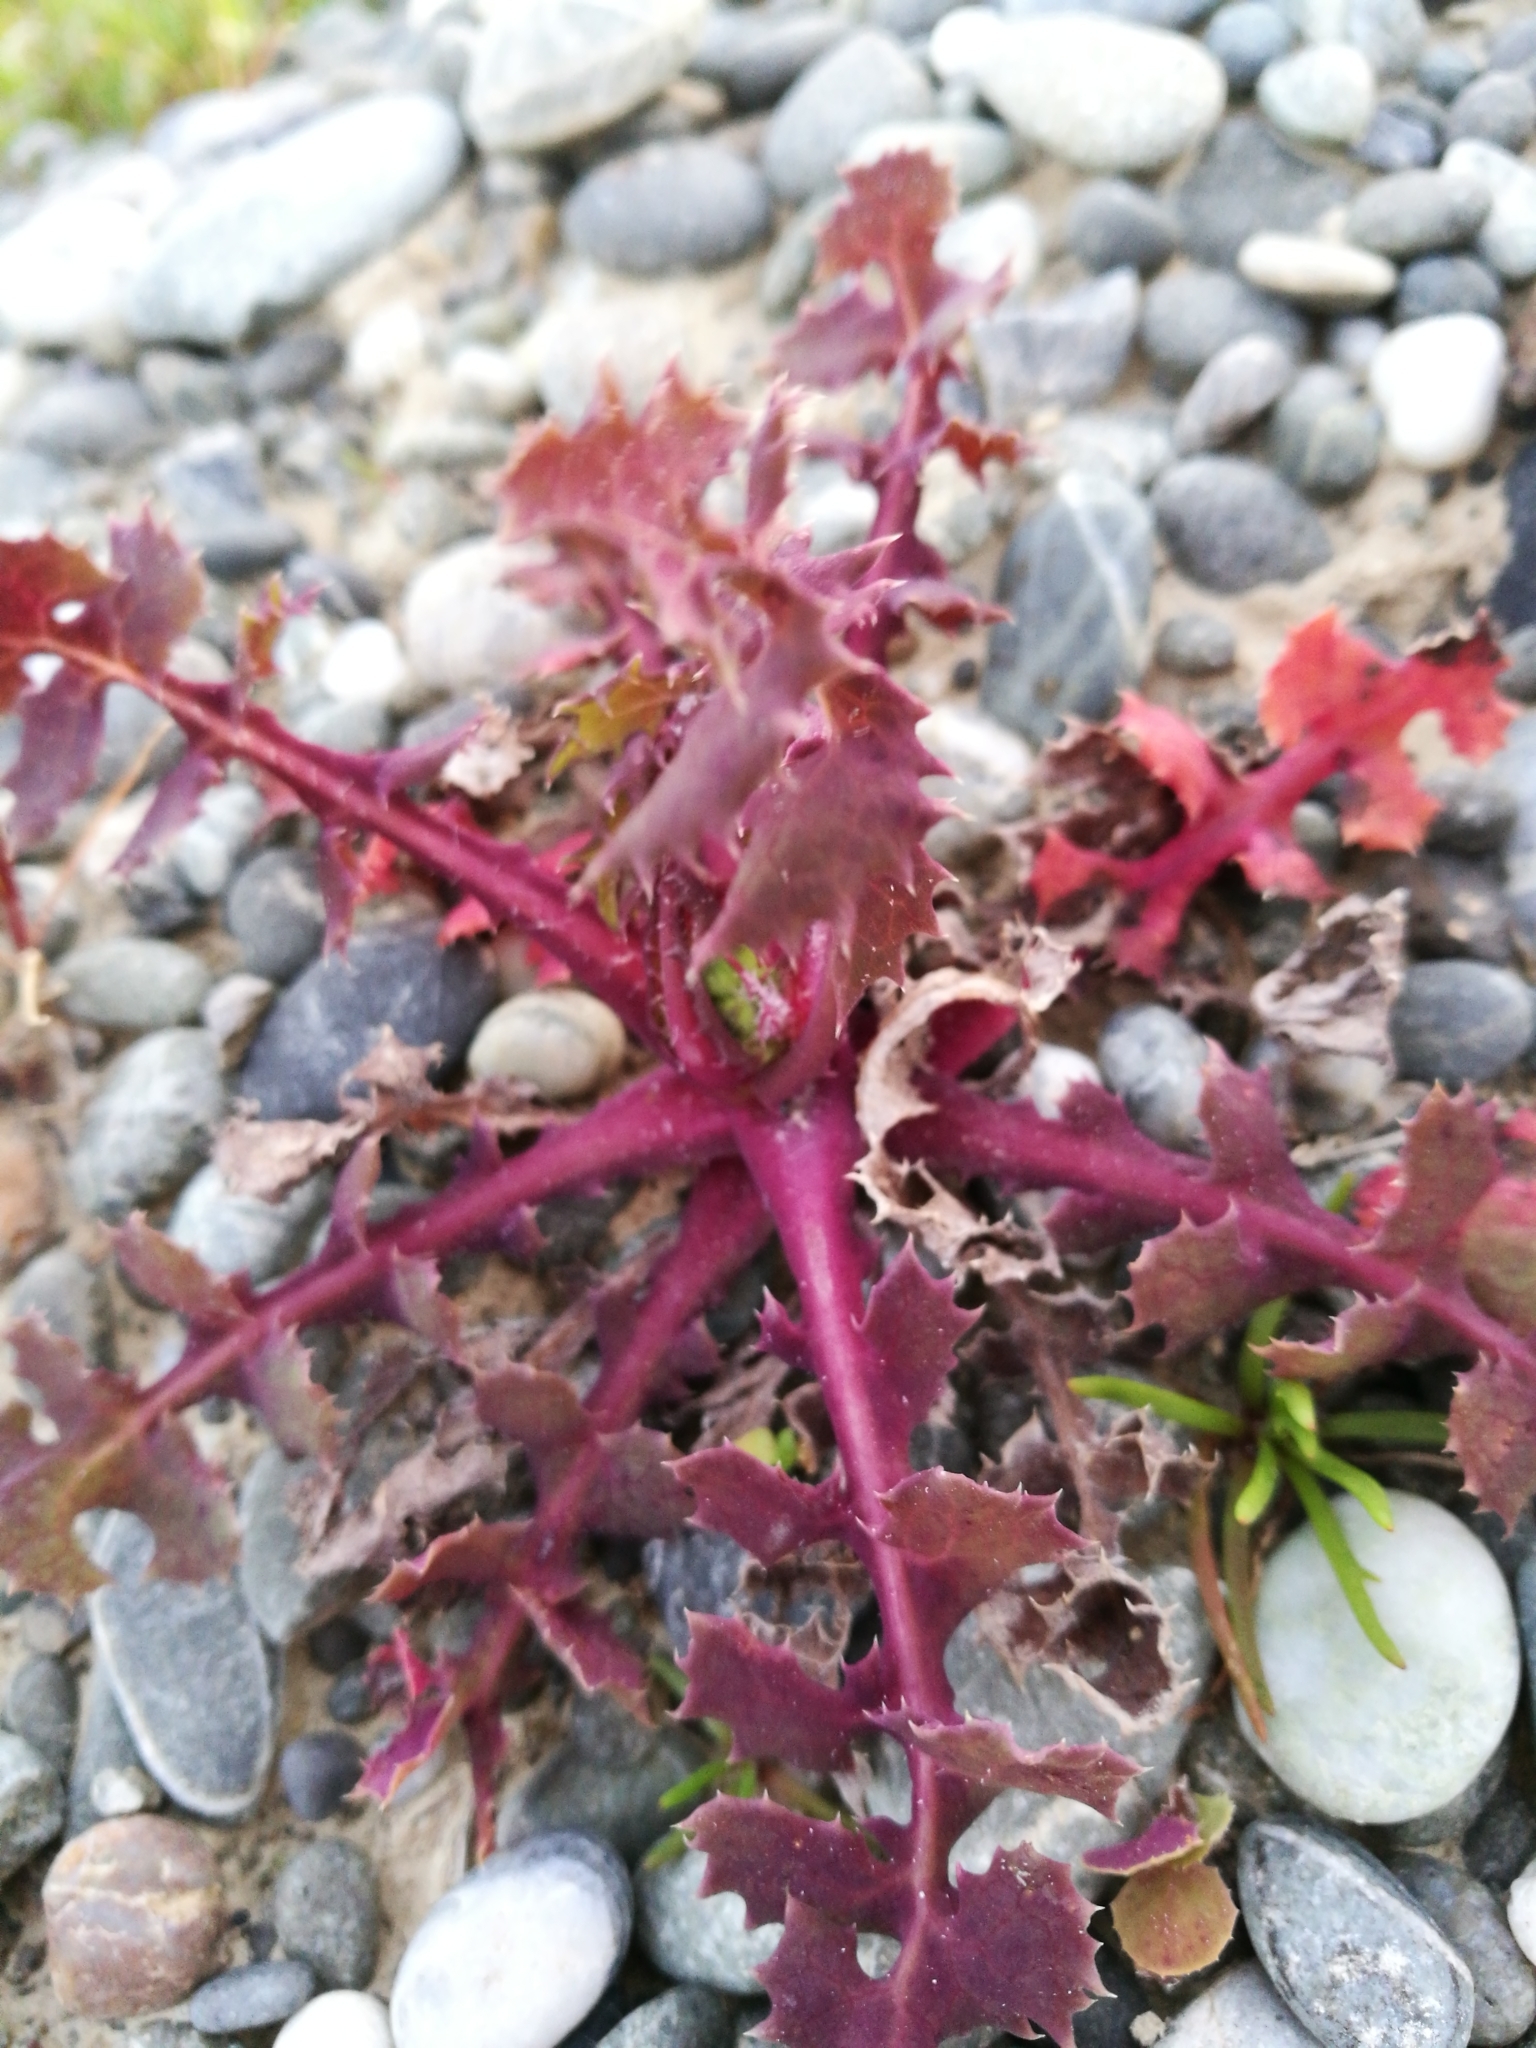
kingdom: Plantae
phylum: Tracheophyta
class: Magnoliopsida
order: Asterales
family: Asteraceae
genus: Sonchus
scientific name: Sonchus oleraceus
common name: Common sowthistle
